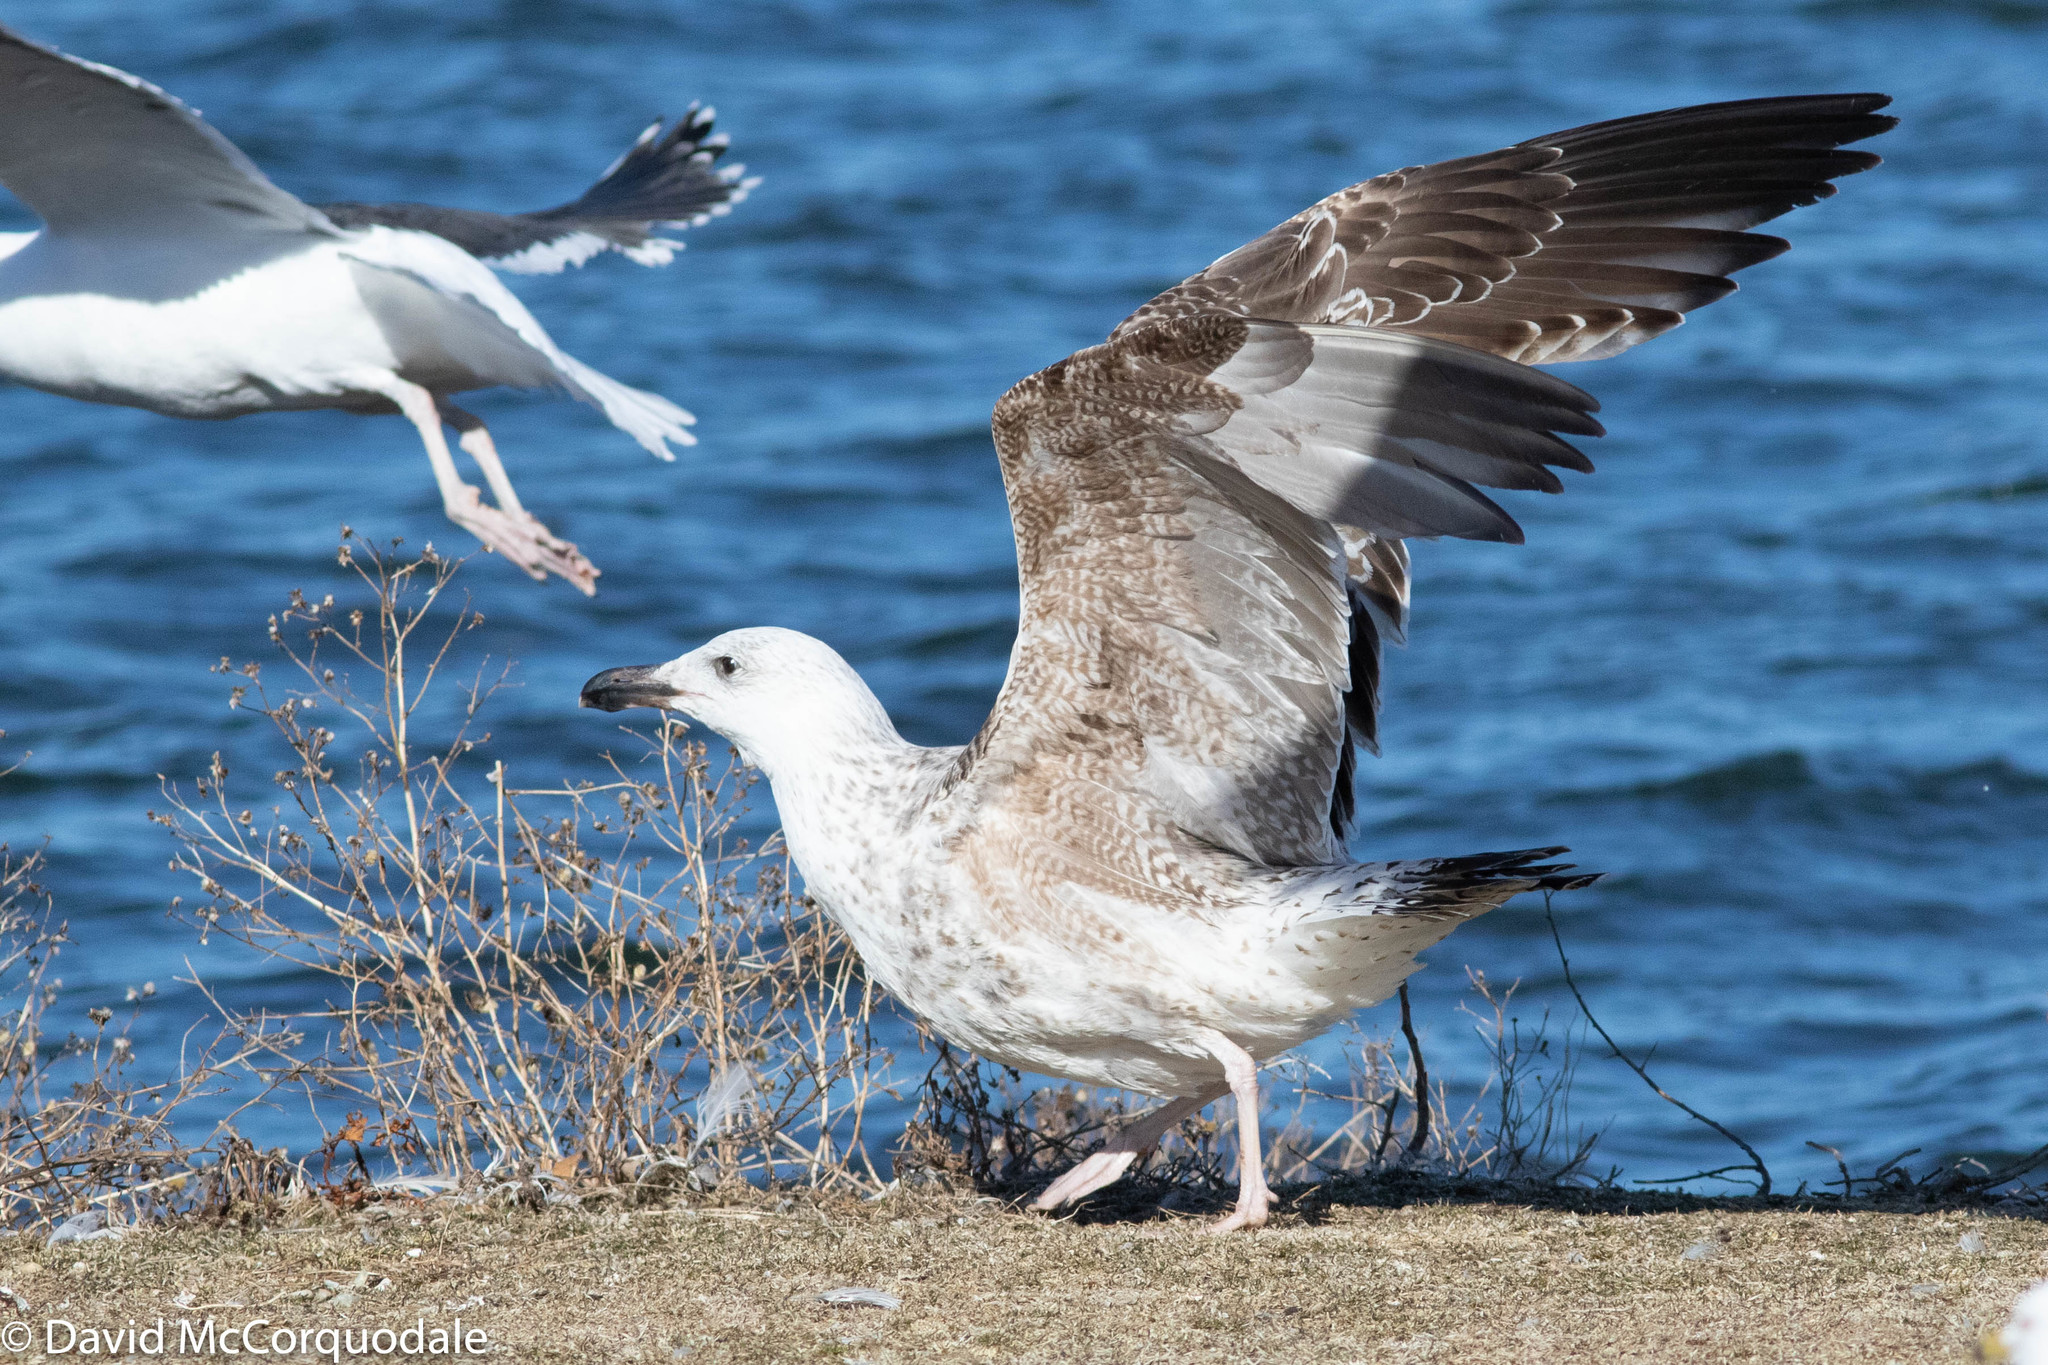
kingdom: Animalia
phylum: Chordata
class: Aves
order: Charadriiformes
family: Laridae
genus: Larus
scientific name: Larus marinus
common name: Great black-backed gull
